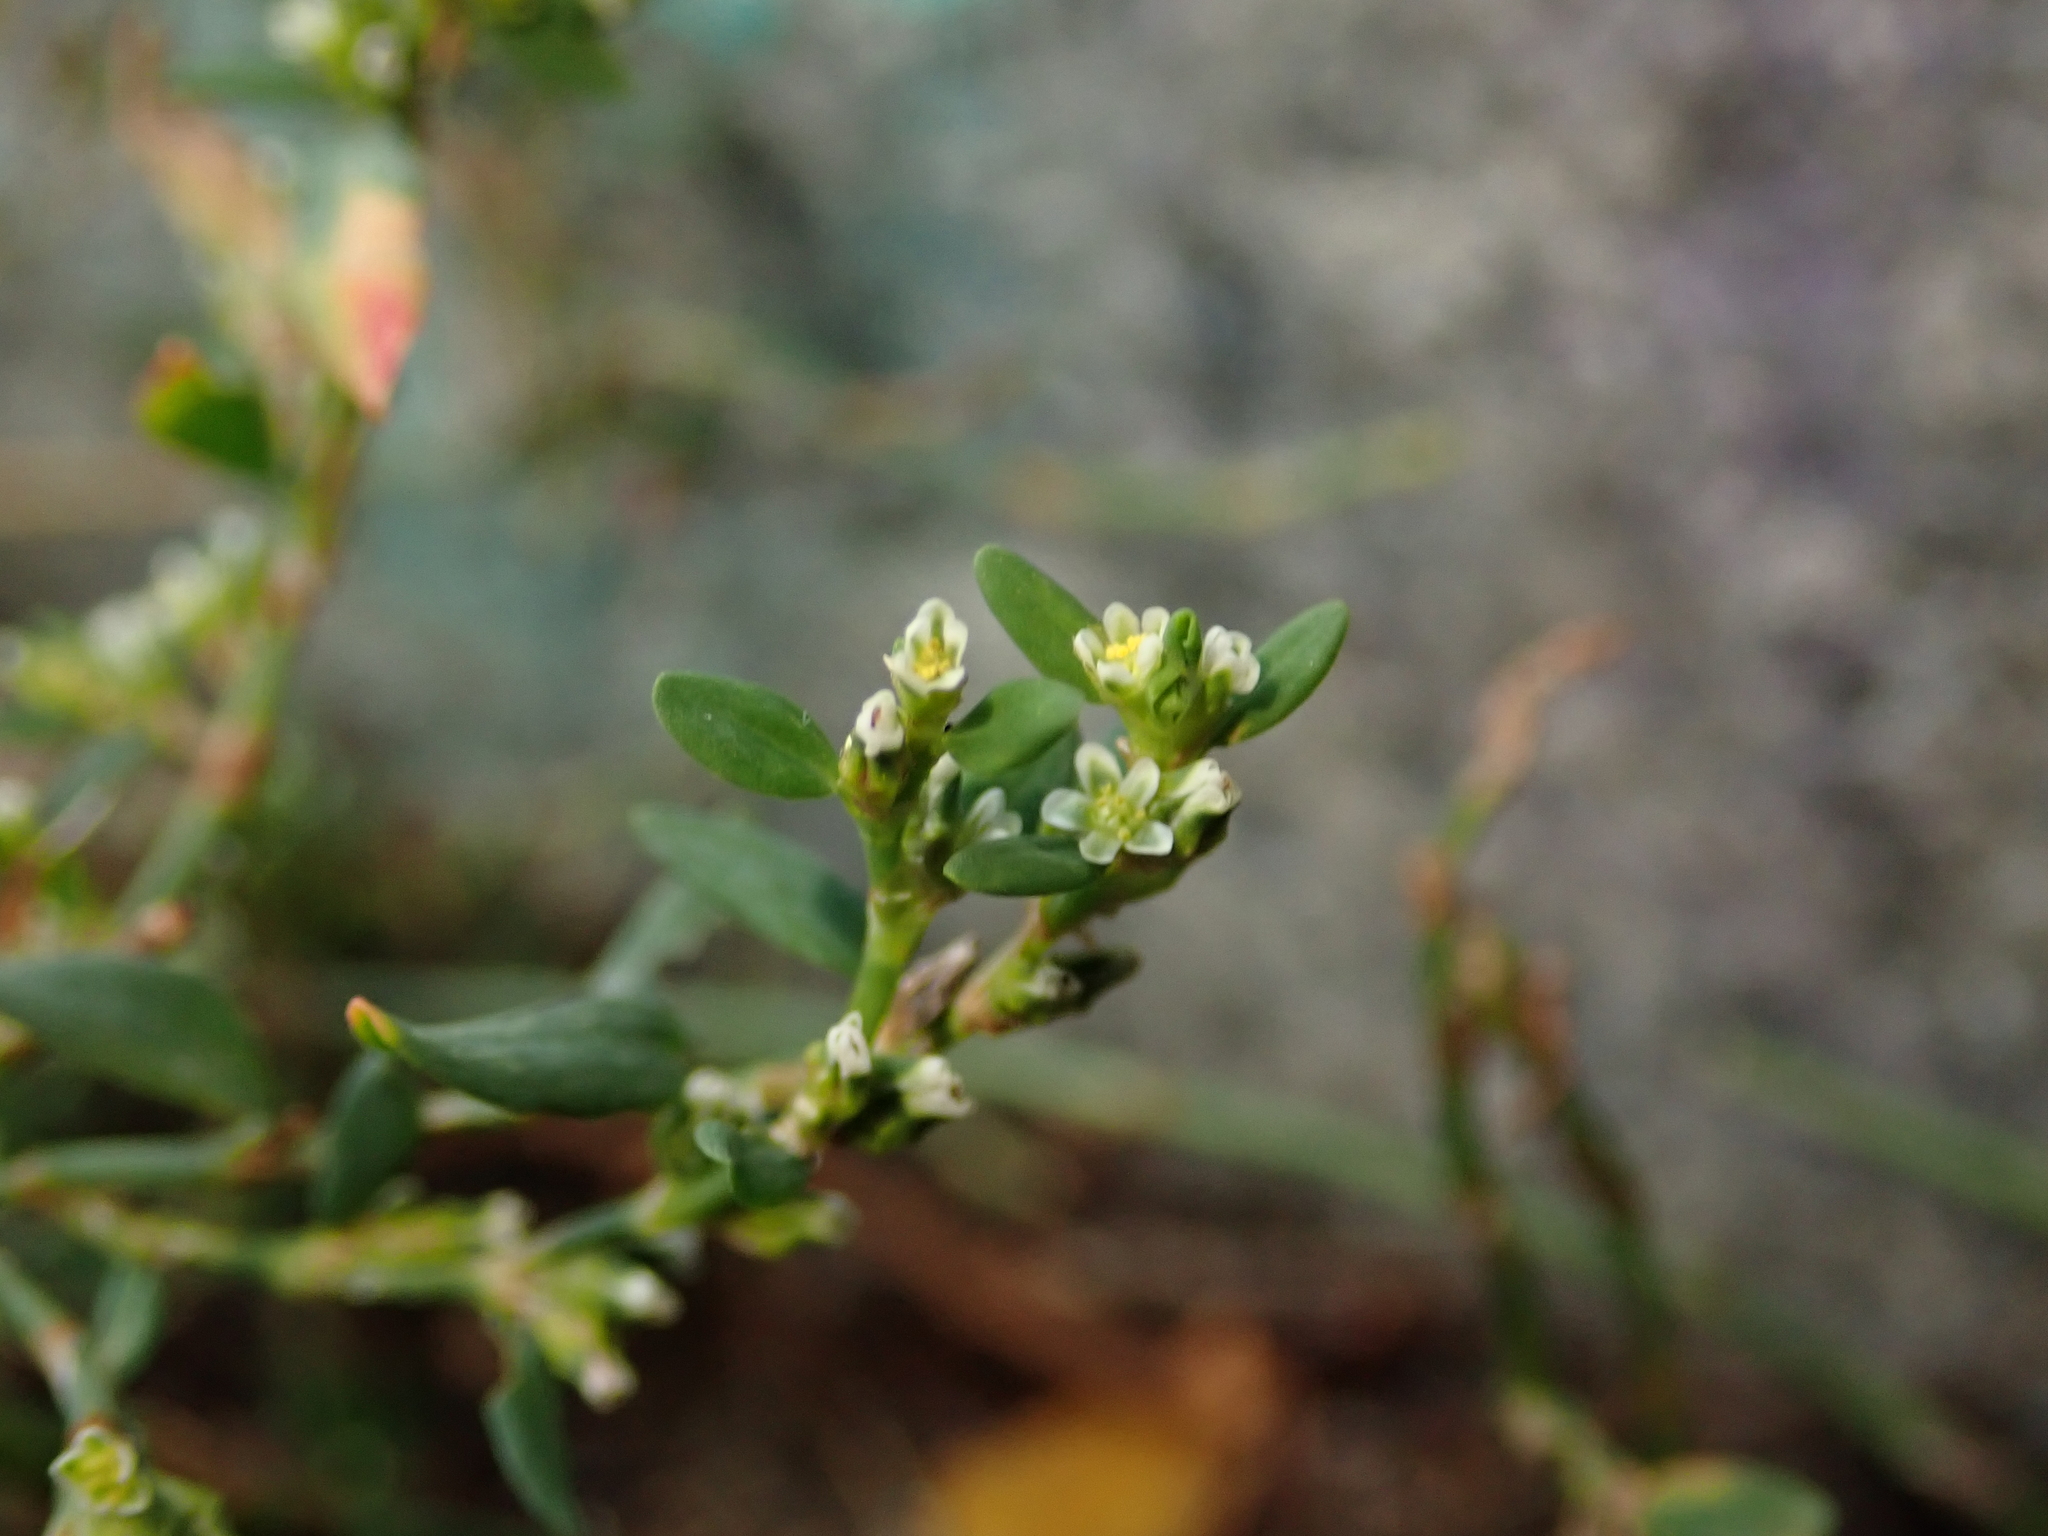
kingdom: Plantae
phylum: Tracheophyta
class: Magnoliopsida
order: Caryophyllales
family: Polygonaceae
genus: Polygonum
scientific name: Polygonum aviculare
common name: Prostrate knotweed
